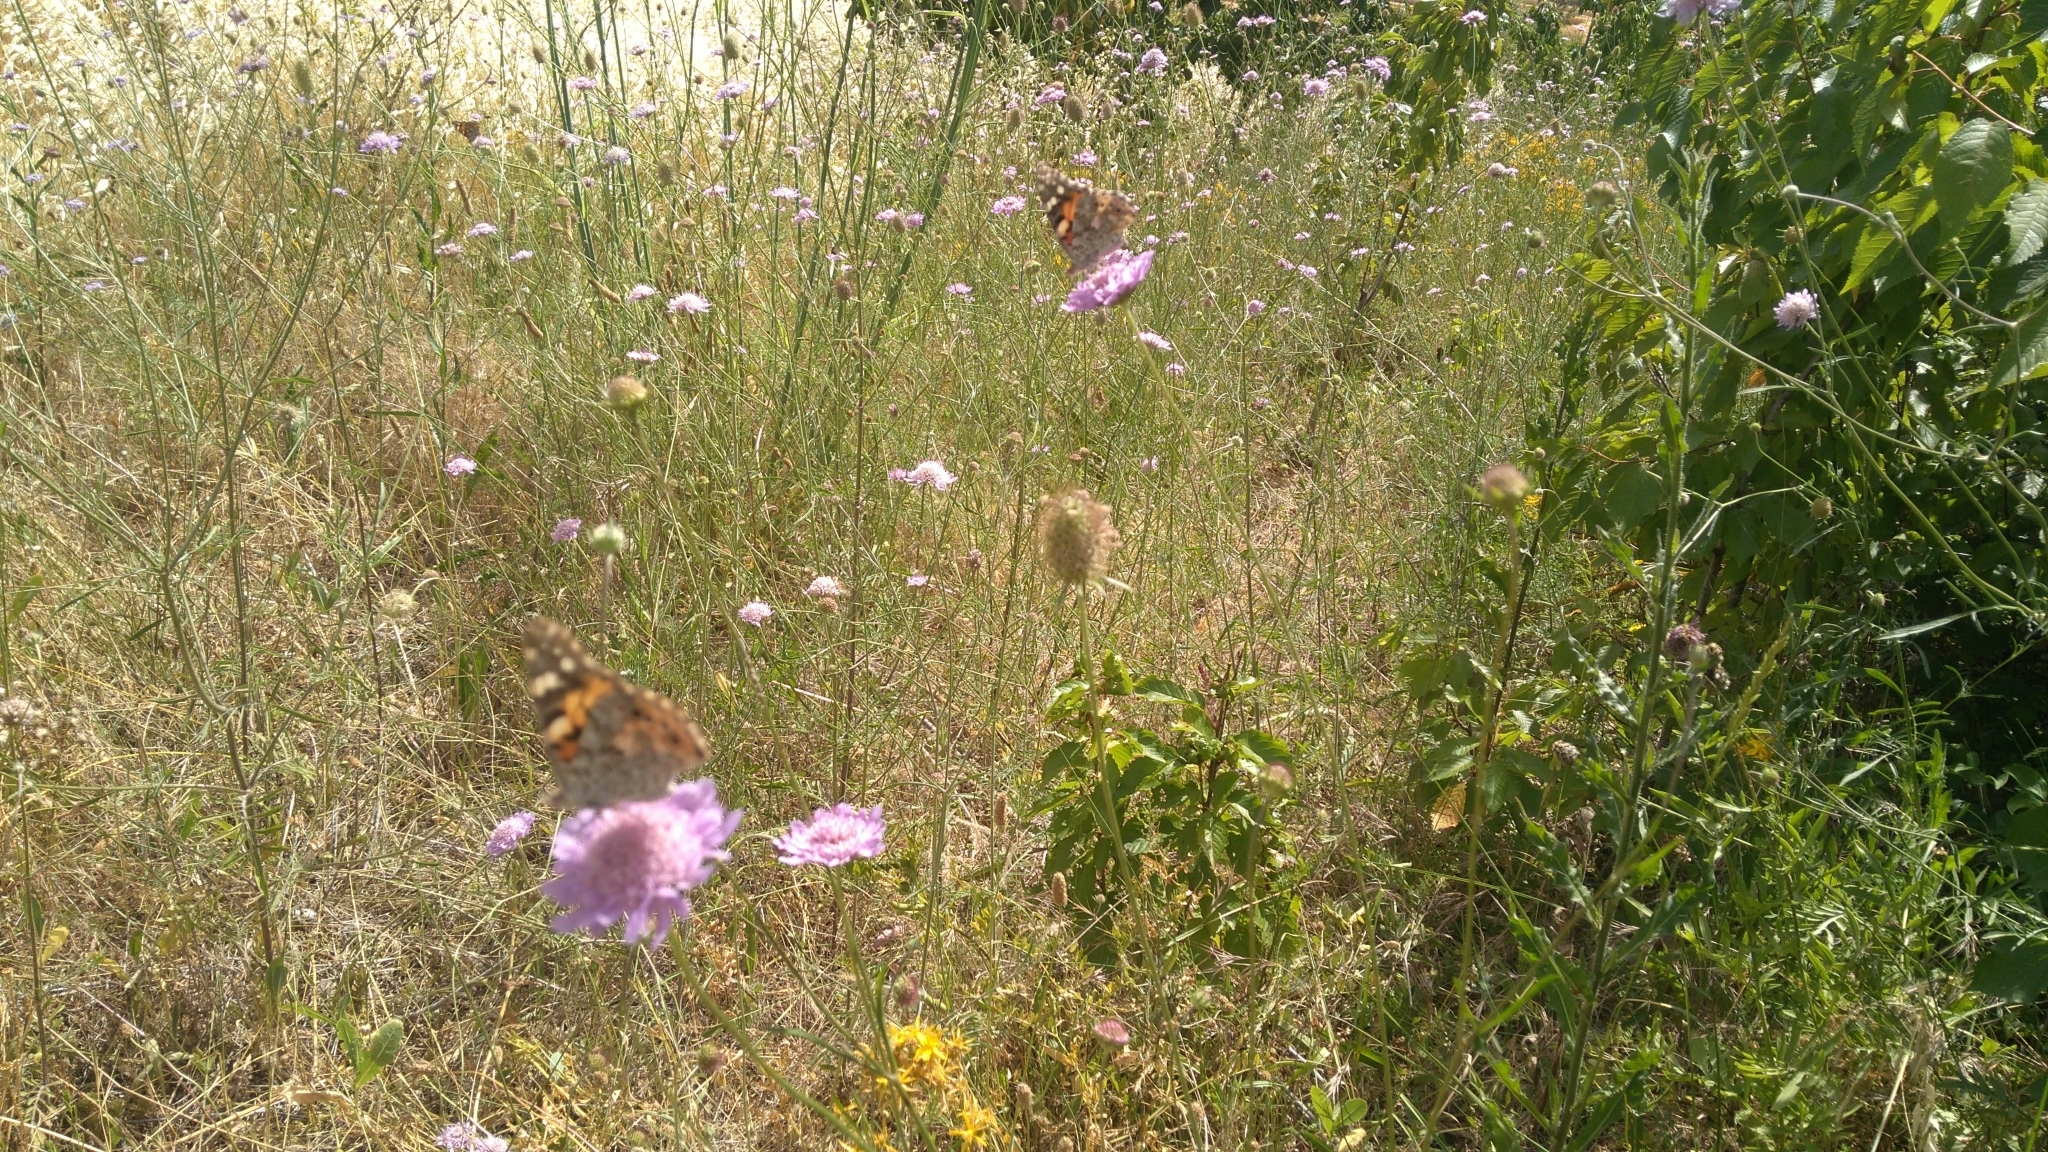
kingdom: Animalia
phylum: Arthropoda
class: Insecta
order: Lepidoptera
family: Nymphalidae
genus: Vanessa
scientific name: Vanessa cardui
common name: Painted lady
